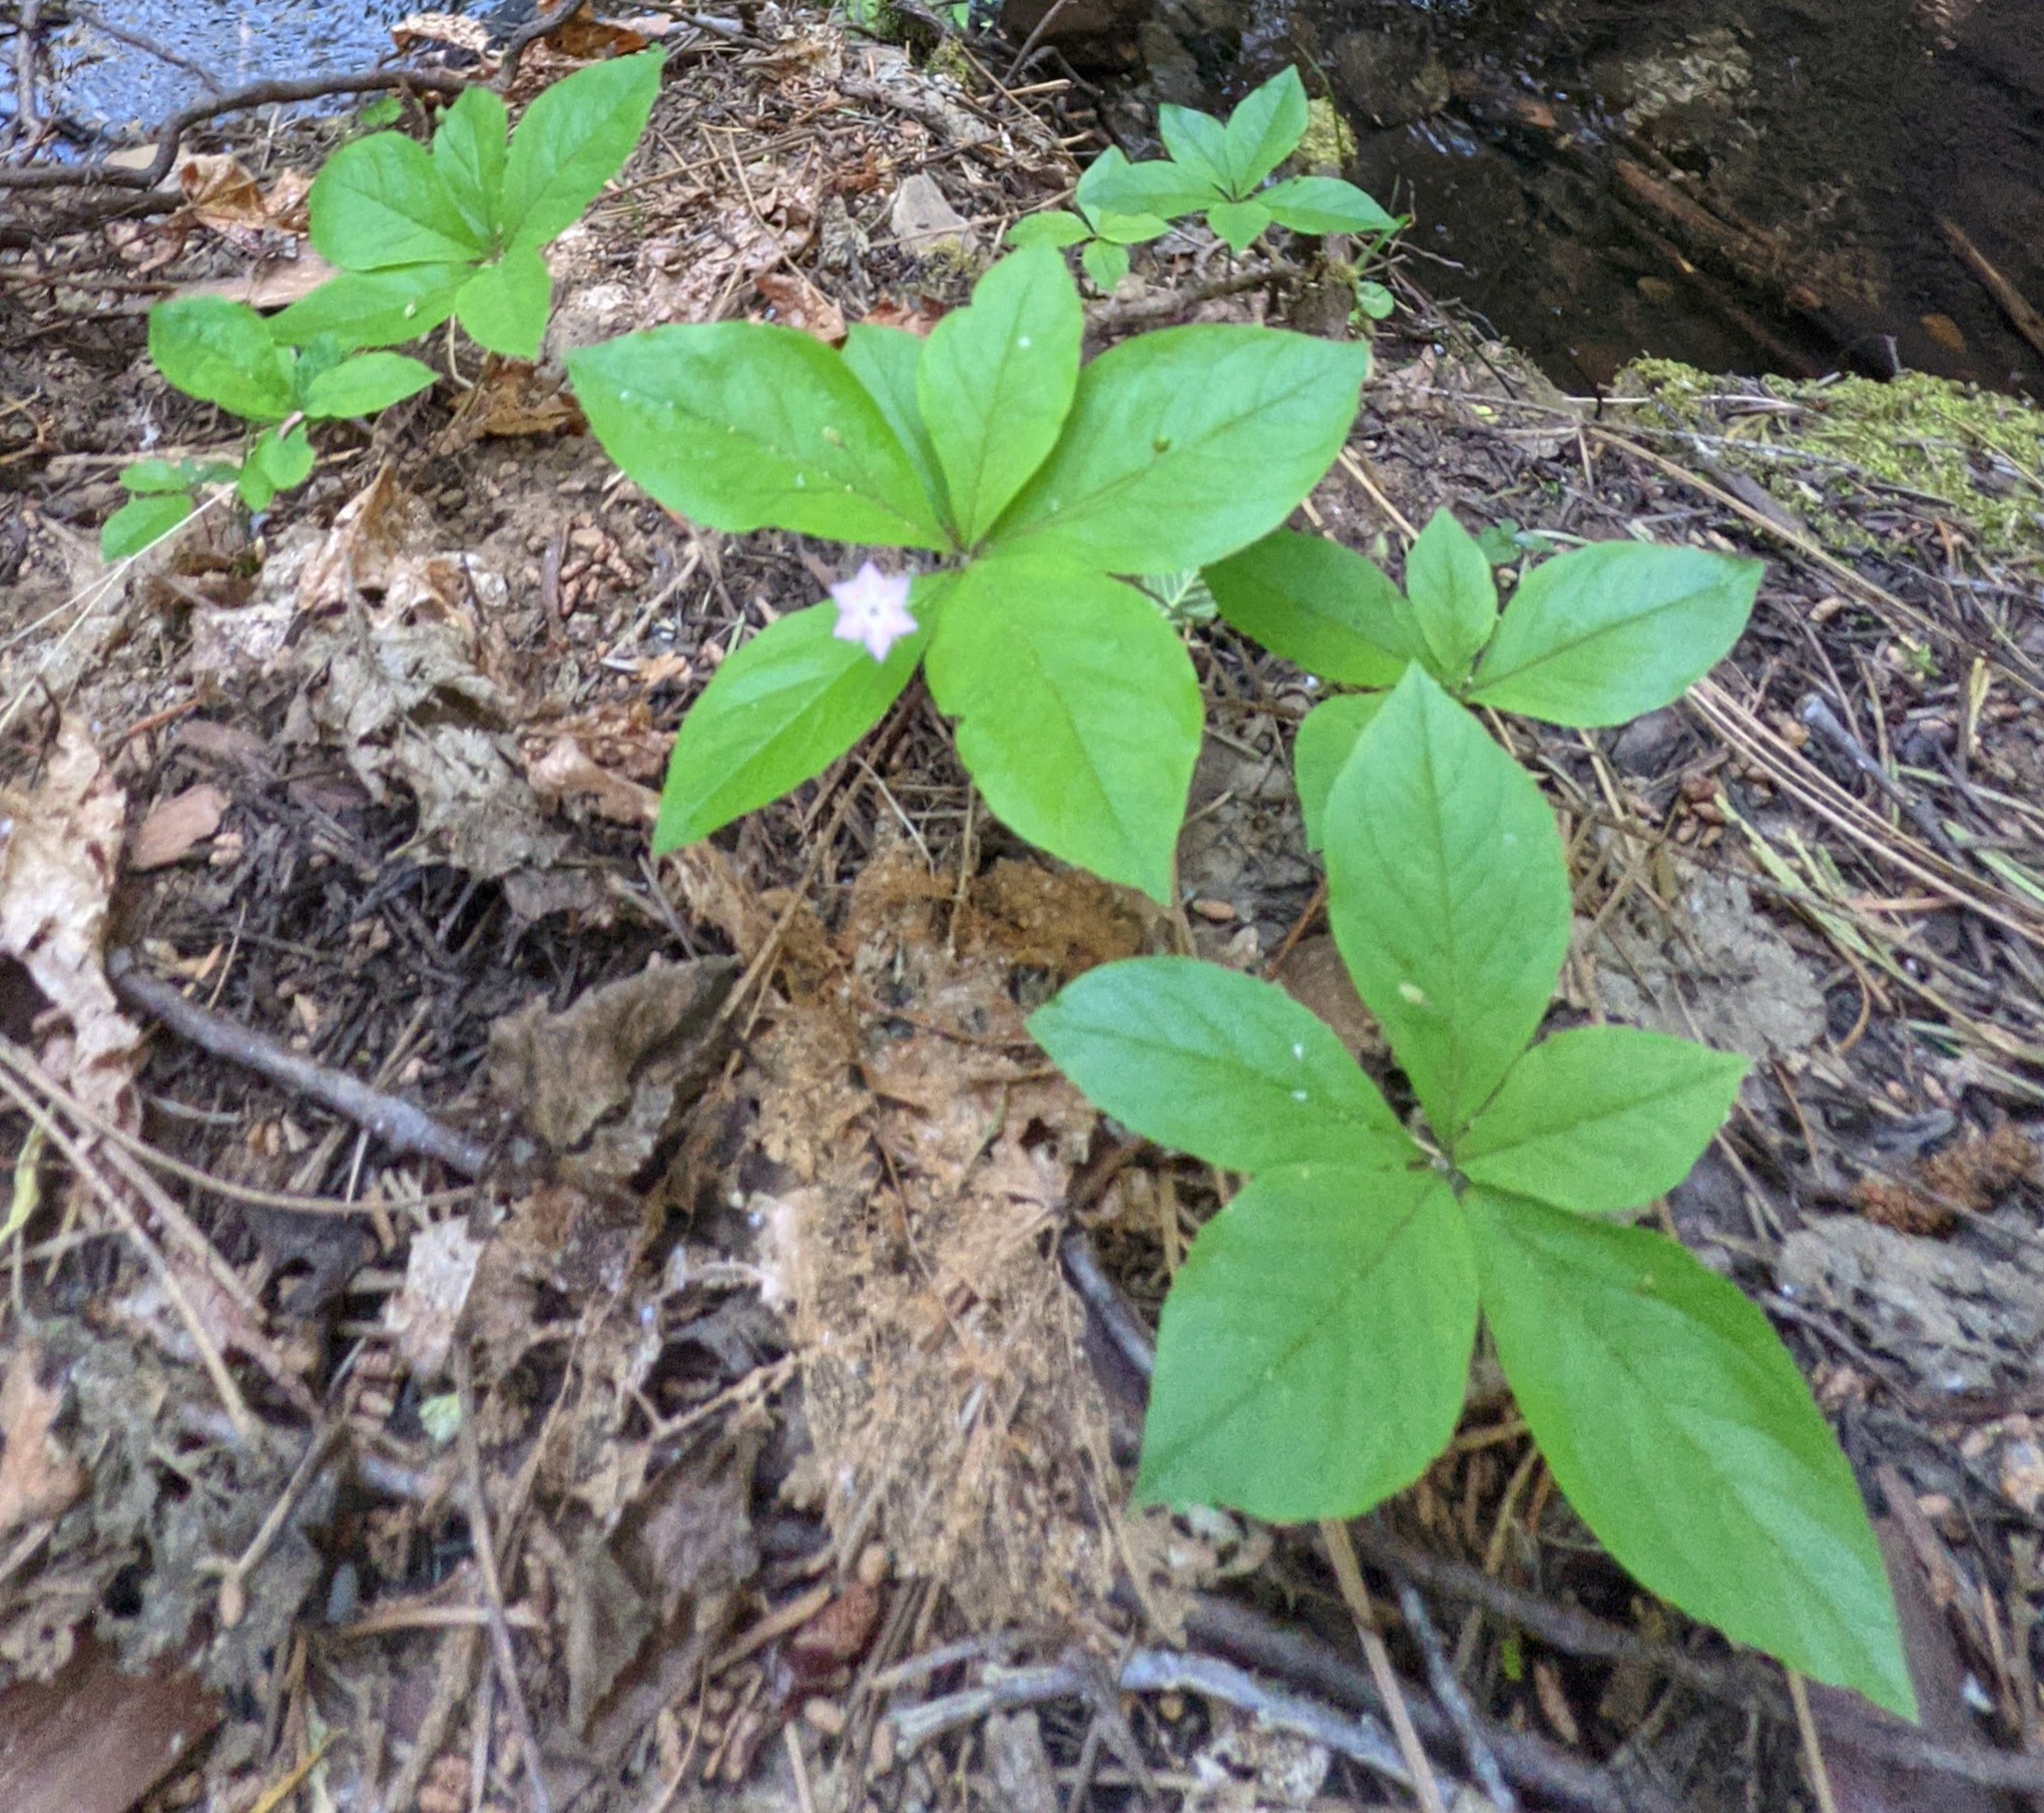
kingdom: Plantae
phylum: Tracheophyta
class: Magnoliopsida
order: Ericales
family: Primulaceae
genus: Lysimachia
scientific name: Lysimachia latifolia
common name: Pacific starflower
